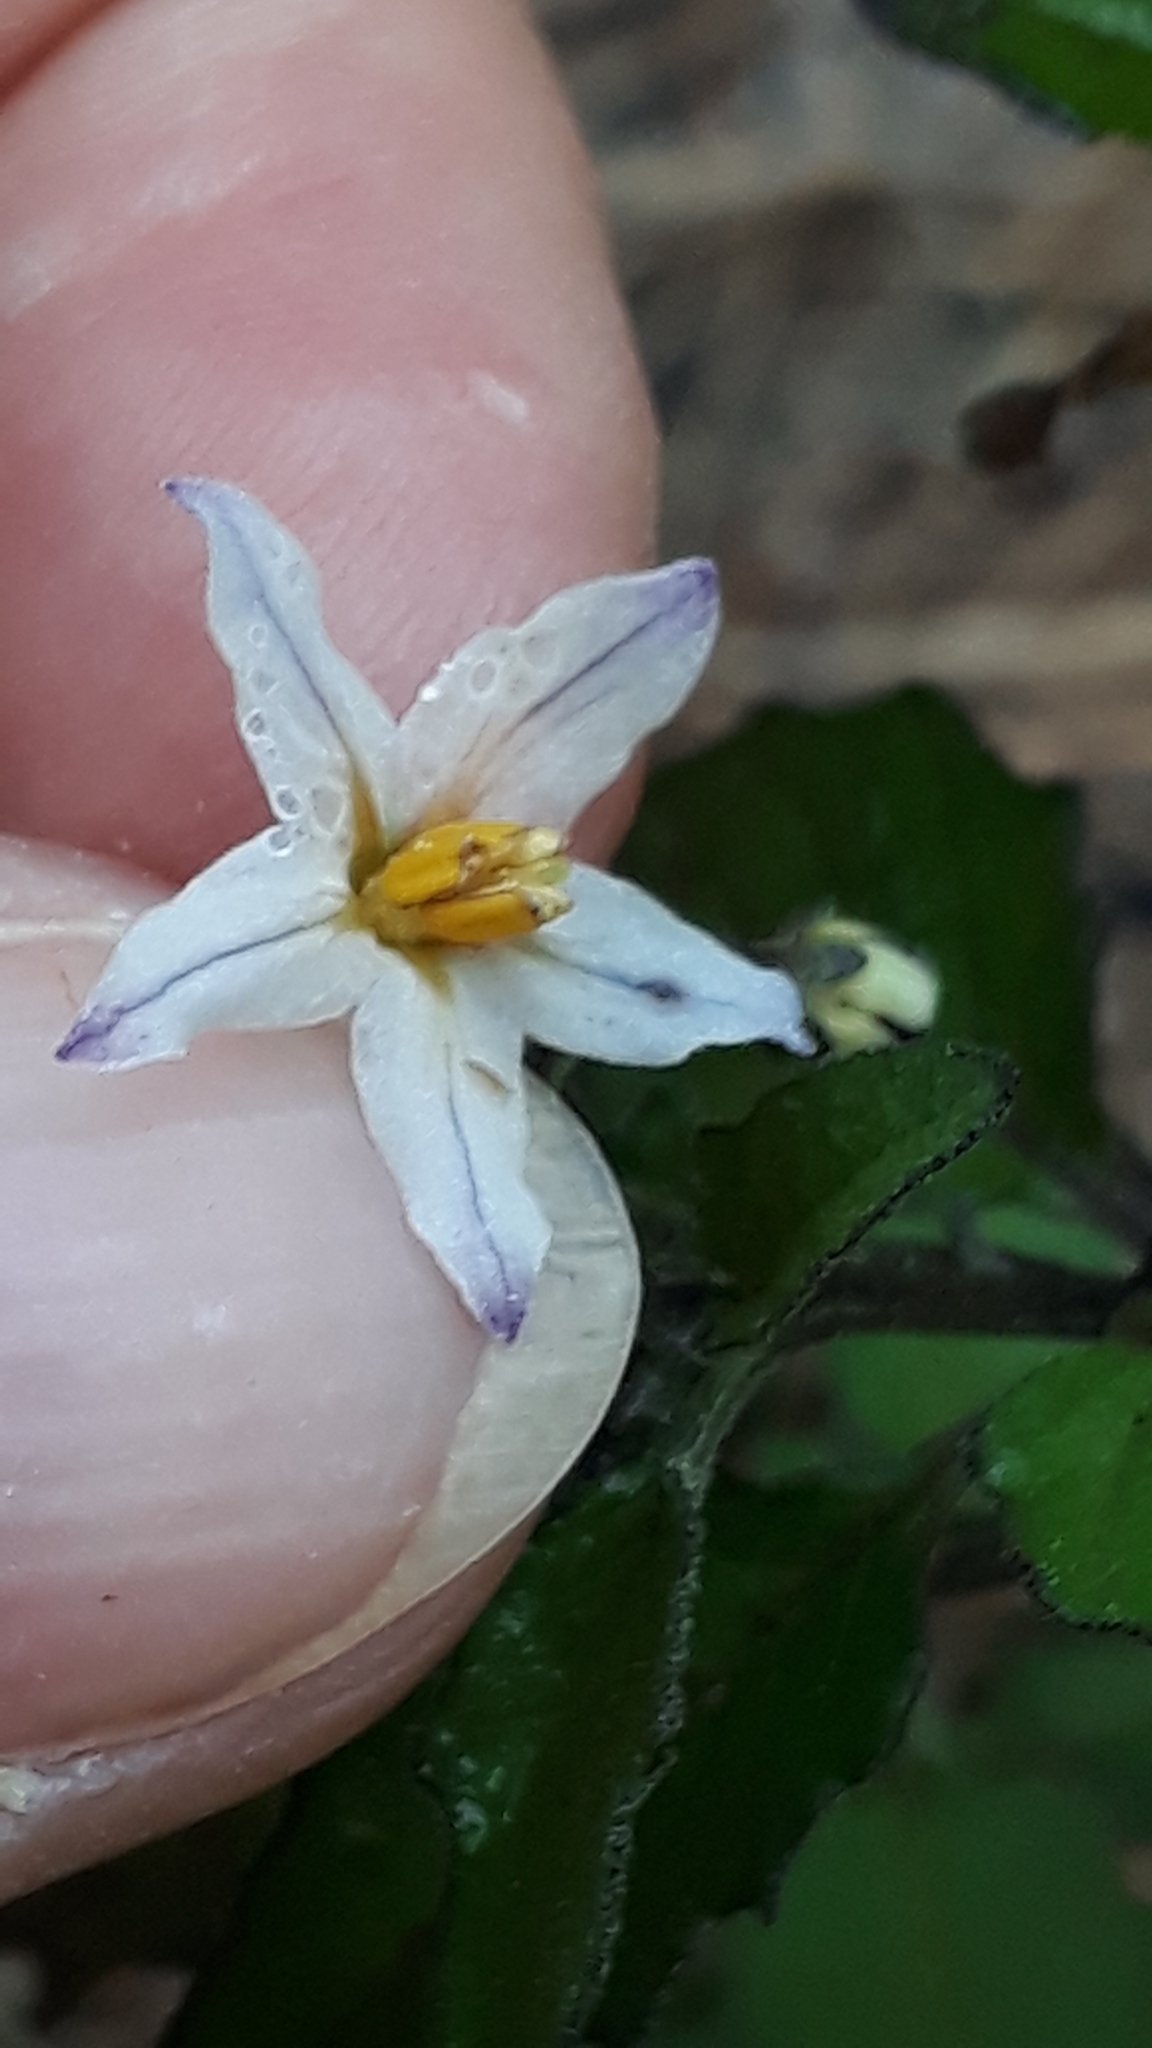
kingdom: Plantae
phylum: Tracheophyta
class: Magnoliopsida
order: Solanales
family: Solanaceae
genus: Solanum
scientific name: Solanum villosum
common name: Red nightshade
